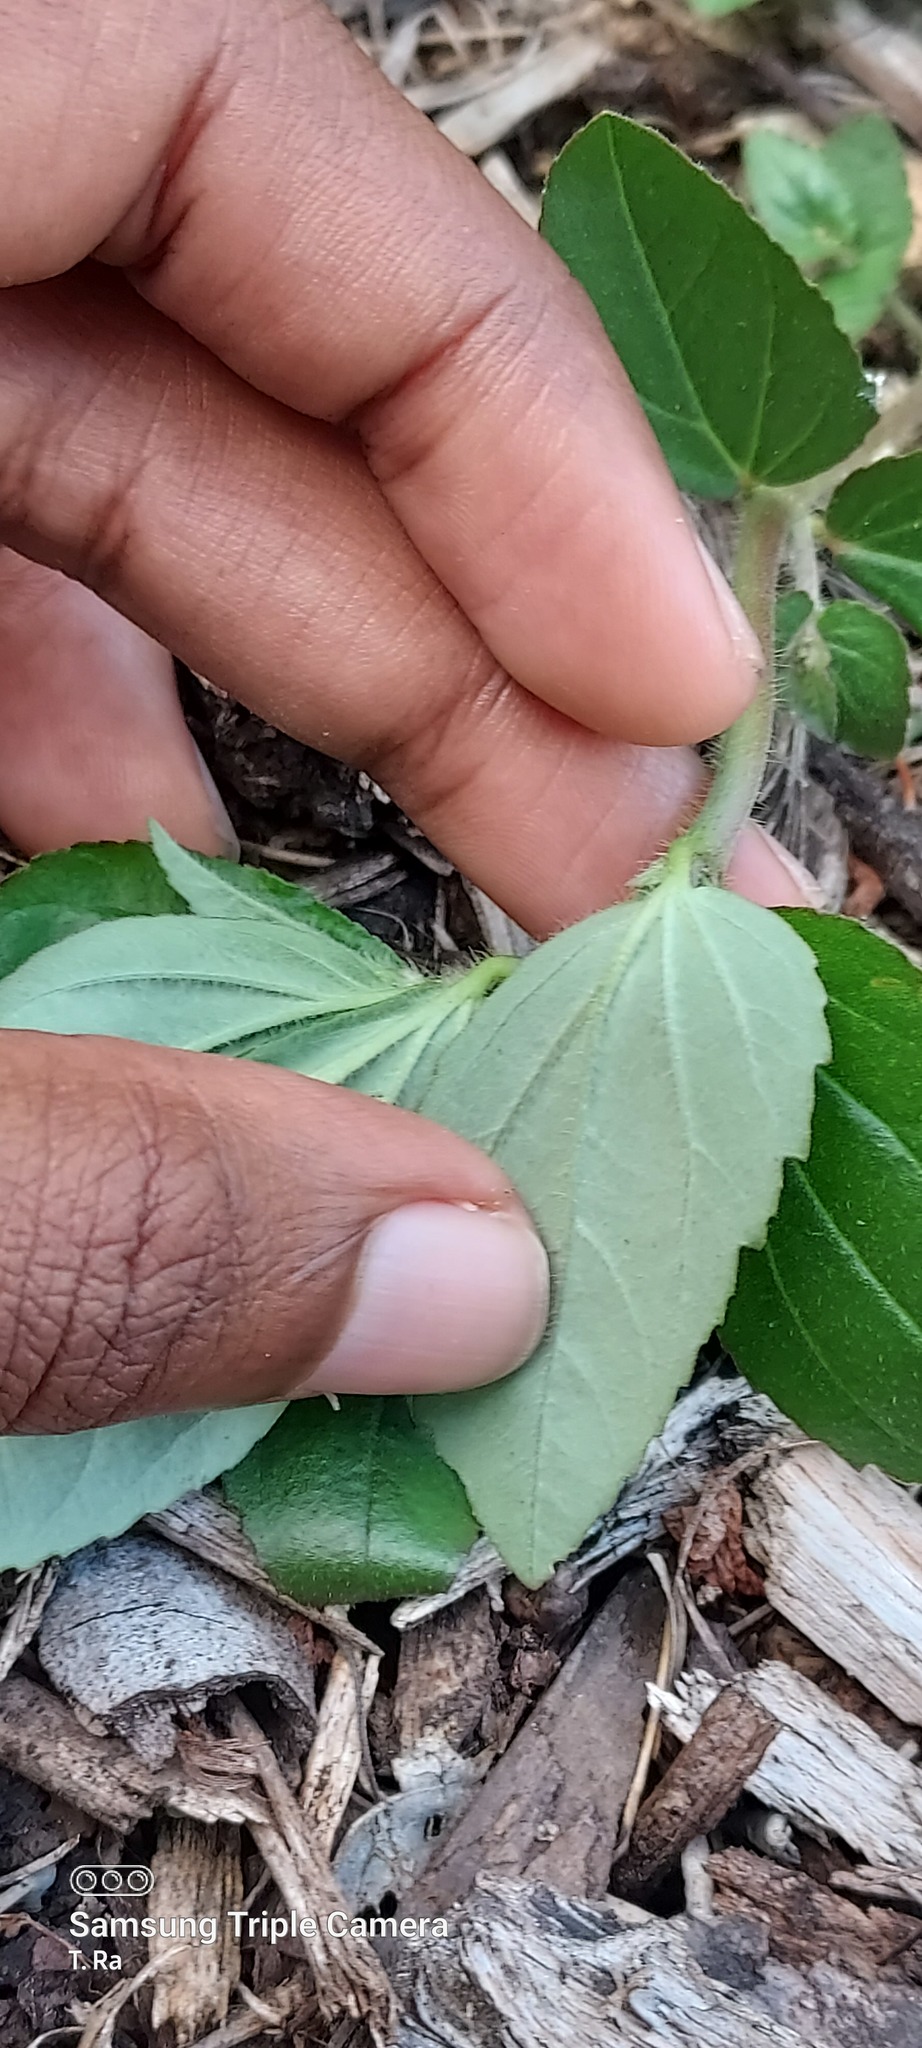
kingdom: Plantae
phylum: Tracheophyta
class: Magnoliopsida
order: Malpighiales
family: Euphorbiaceae
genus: Euphorbia
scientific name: Euphorbia hirta
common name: Pillpod sandmat
